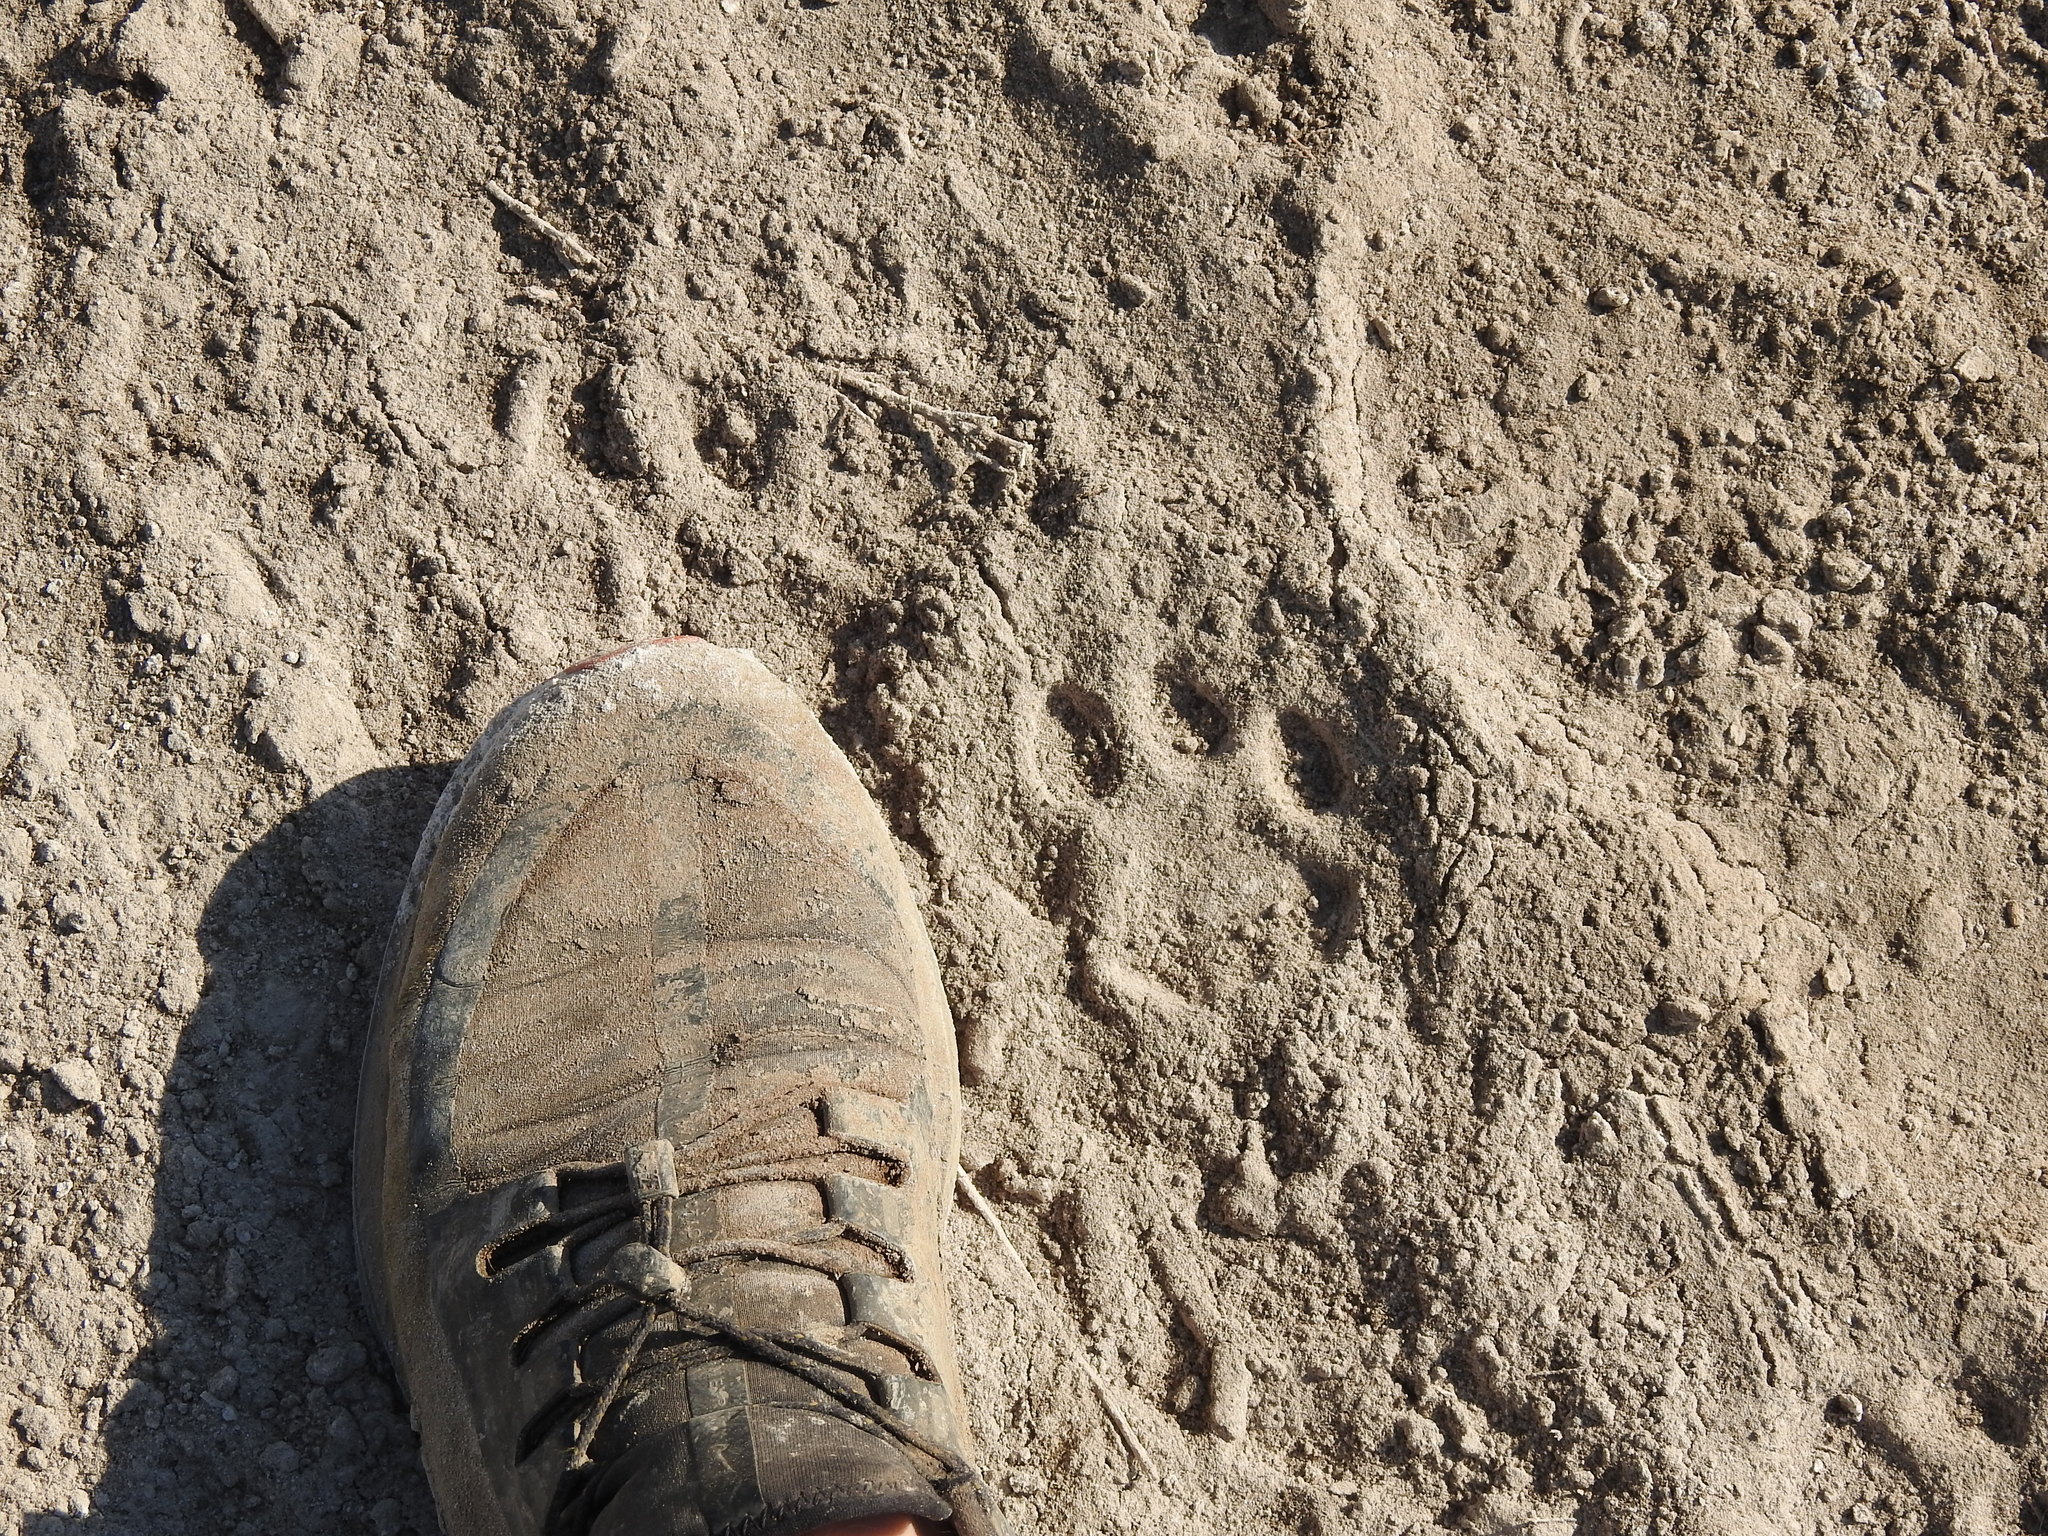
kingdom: Animalia
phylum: Chordata
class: Mammalia
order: Carnivora
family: Felidae
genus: Puma
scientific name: Puma concolor
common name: Puma
